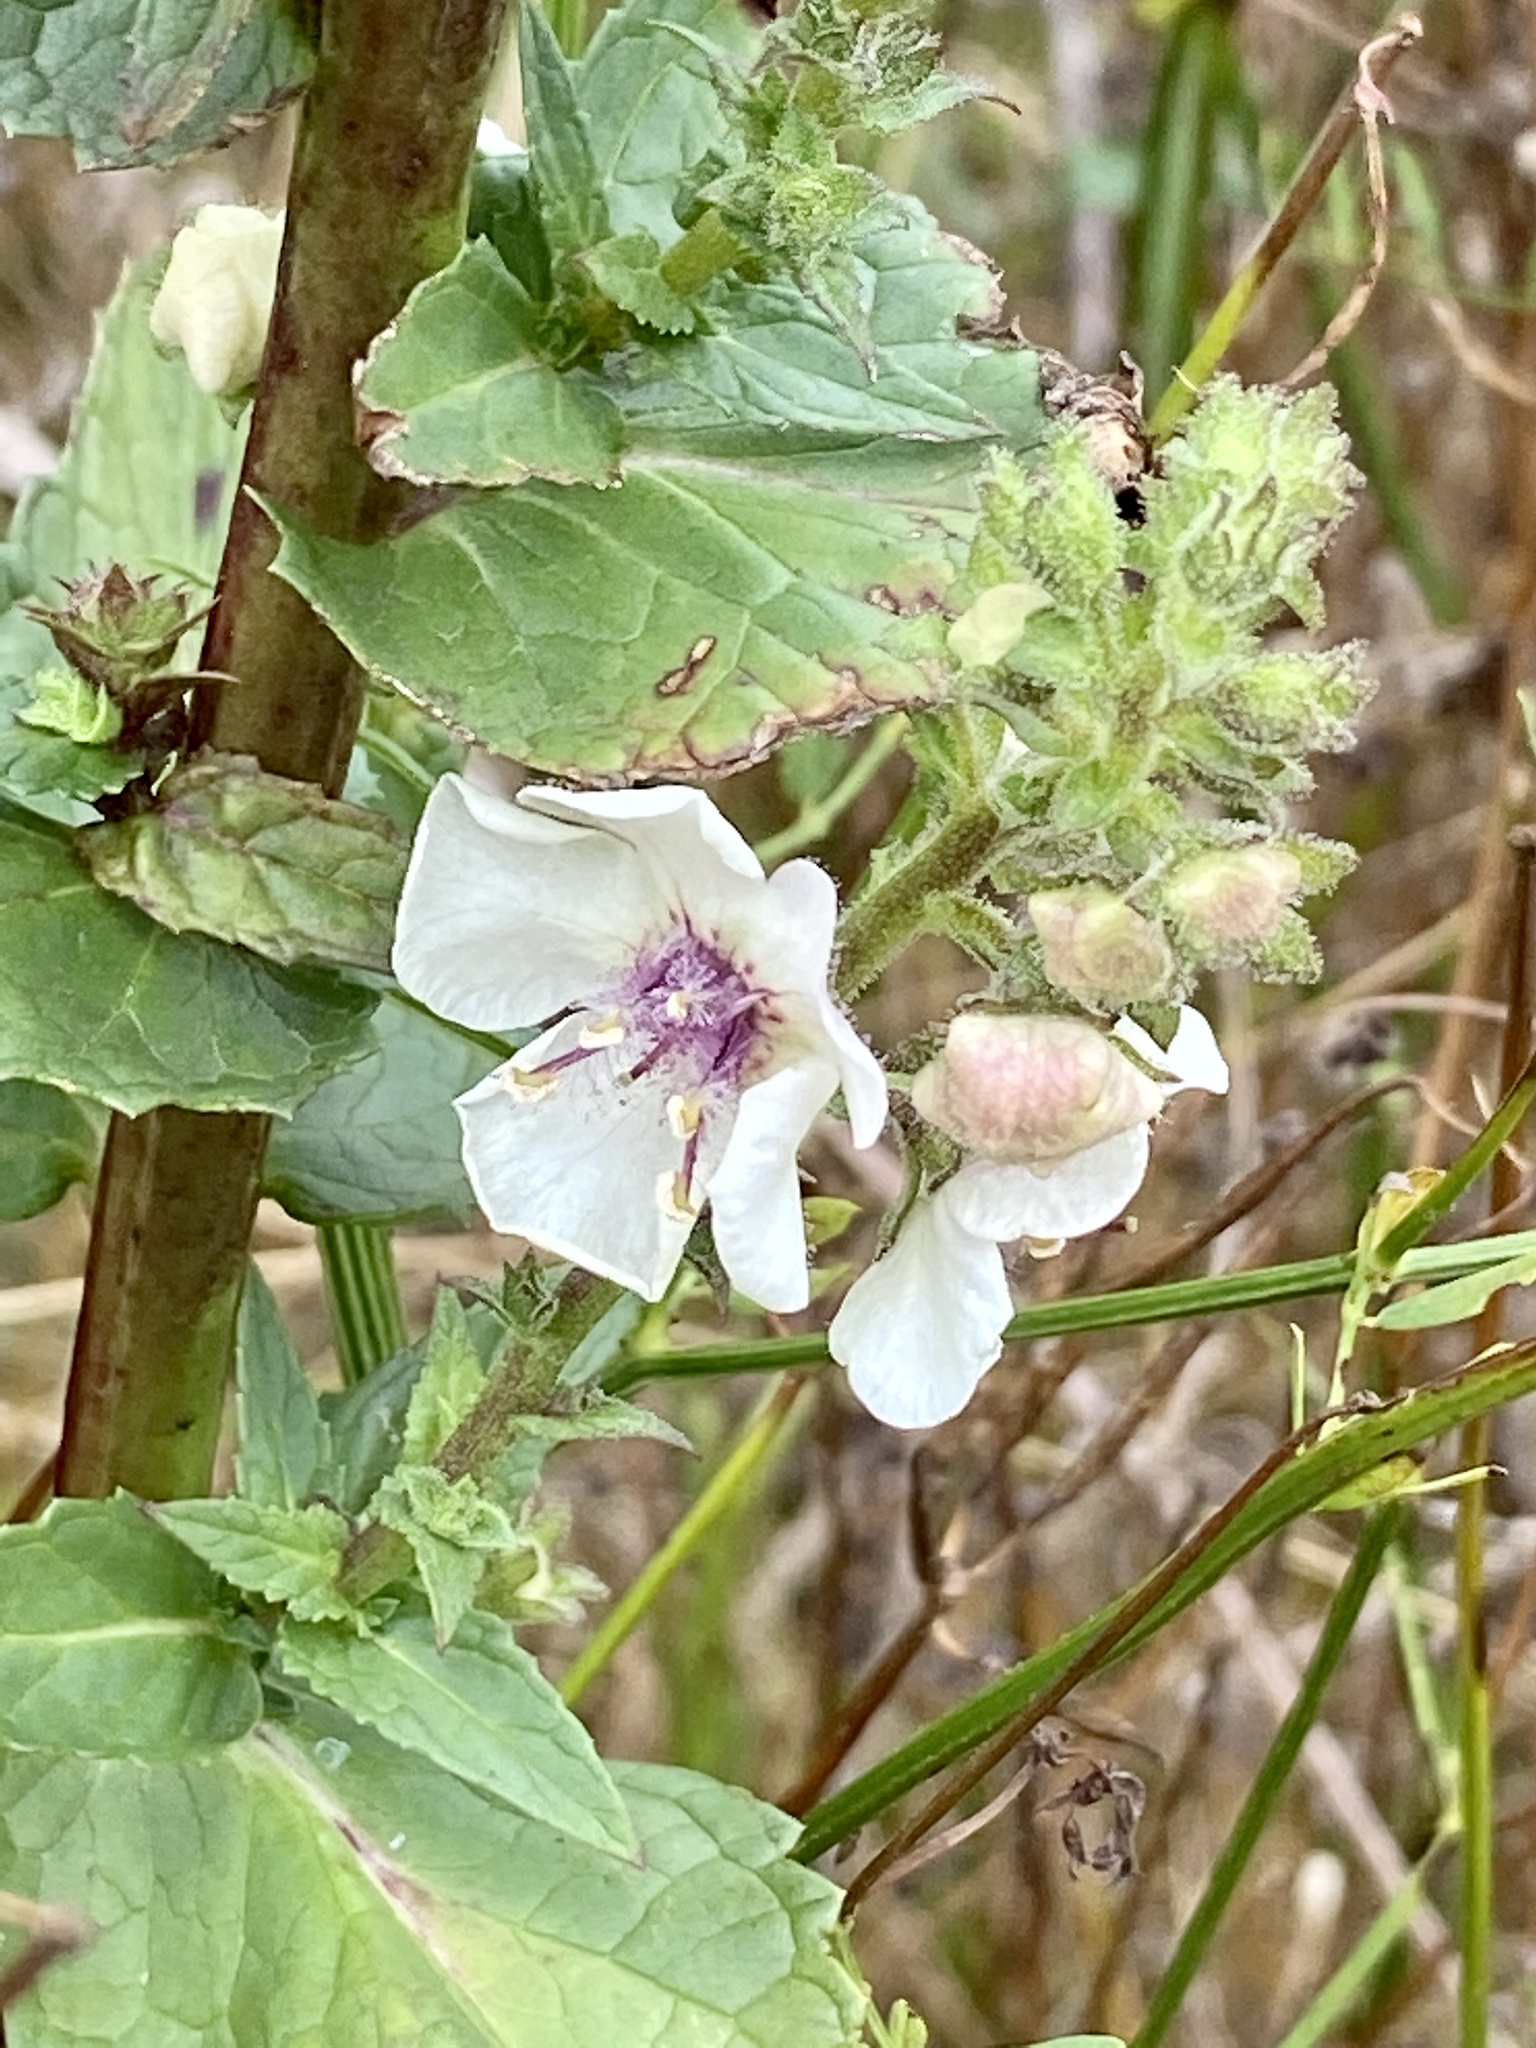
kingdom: Plantae
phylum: Tracheophyta
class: Magnoliopsida
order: Lamiales
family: Scrophulariaceae
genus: Verbascum
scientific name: Verbascum blattaria
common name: Moth mullein
